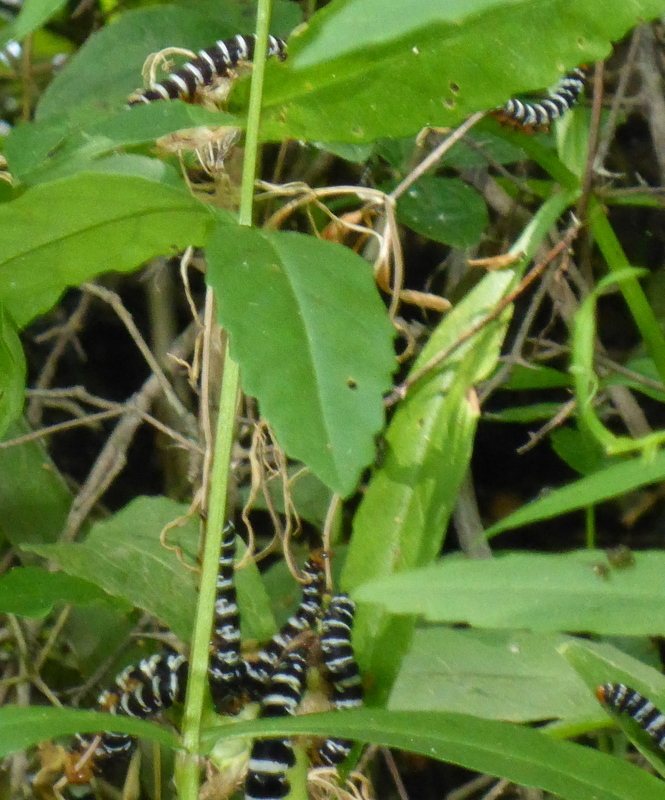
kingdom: Animalia
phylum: Arthropoda
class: Insecta
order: Lepidoptera
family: Noctuidae
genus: Xanthopastis
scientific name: Xanthopastis regnatrix
